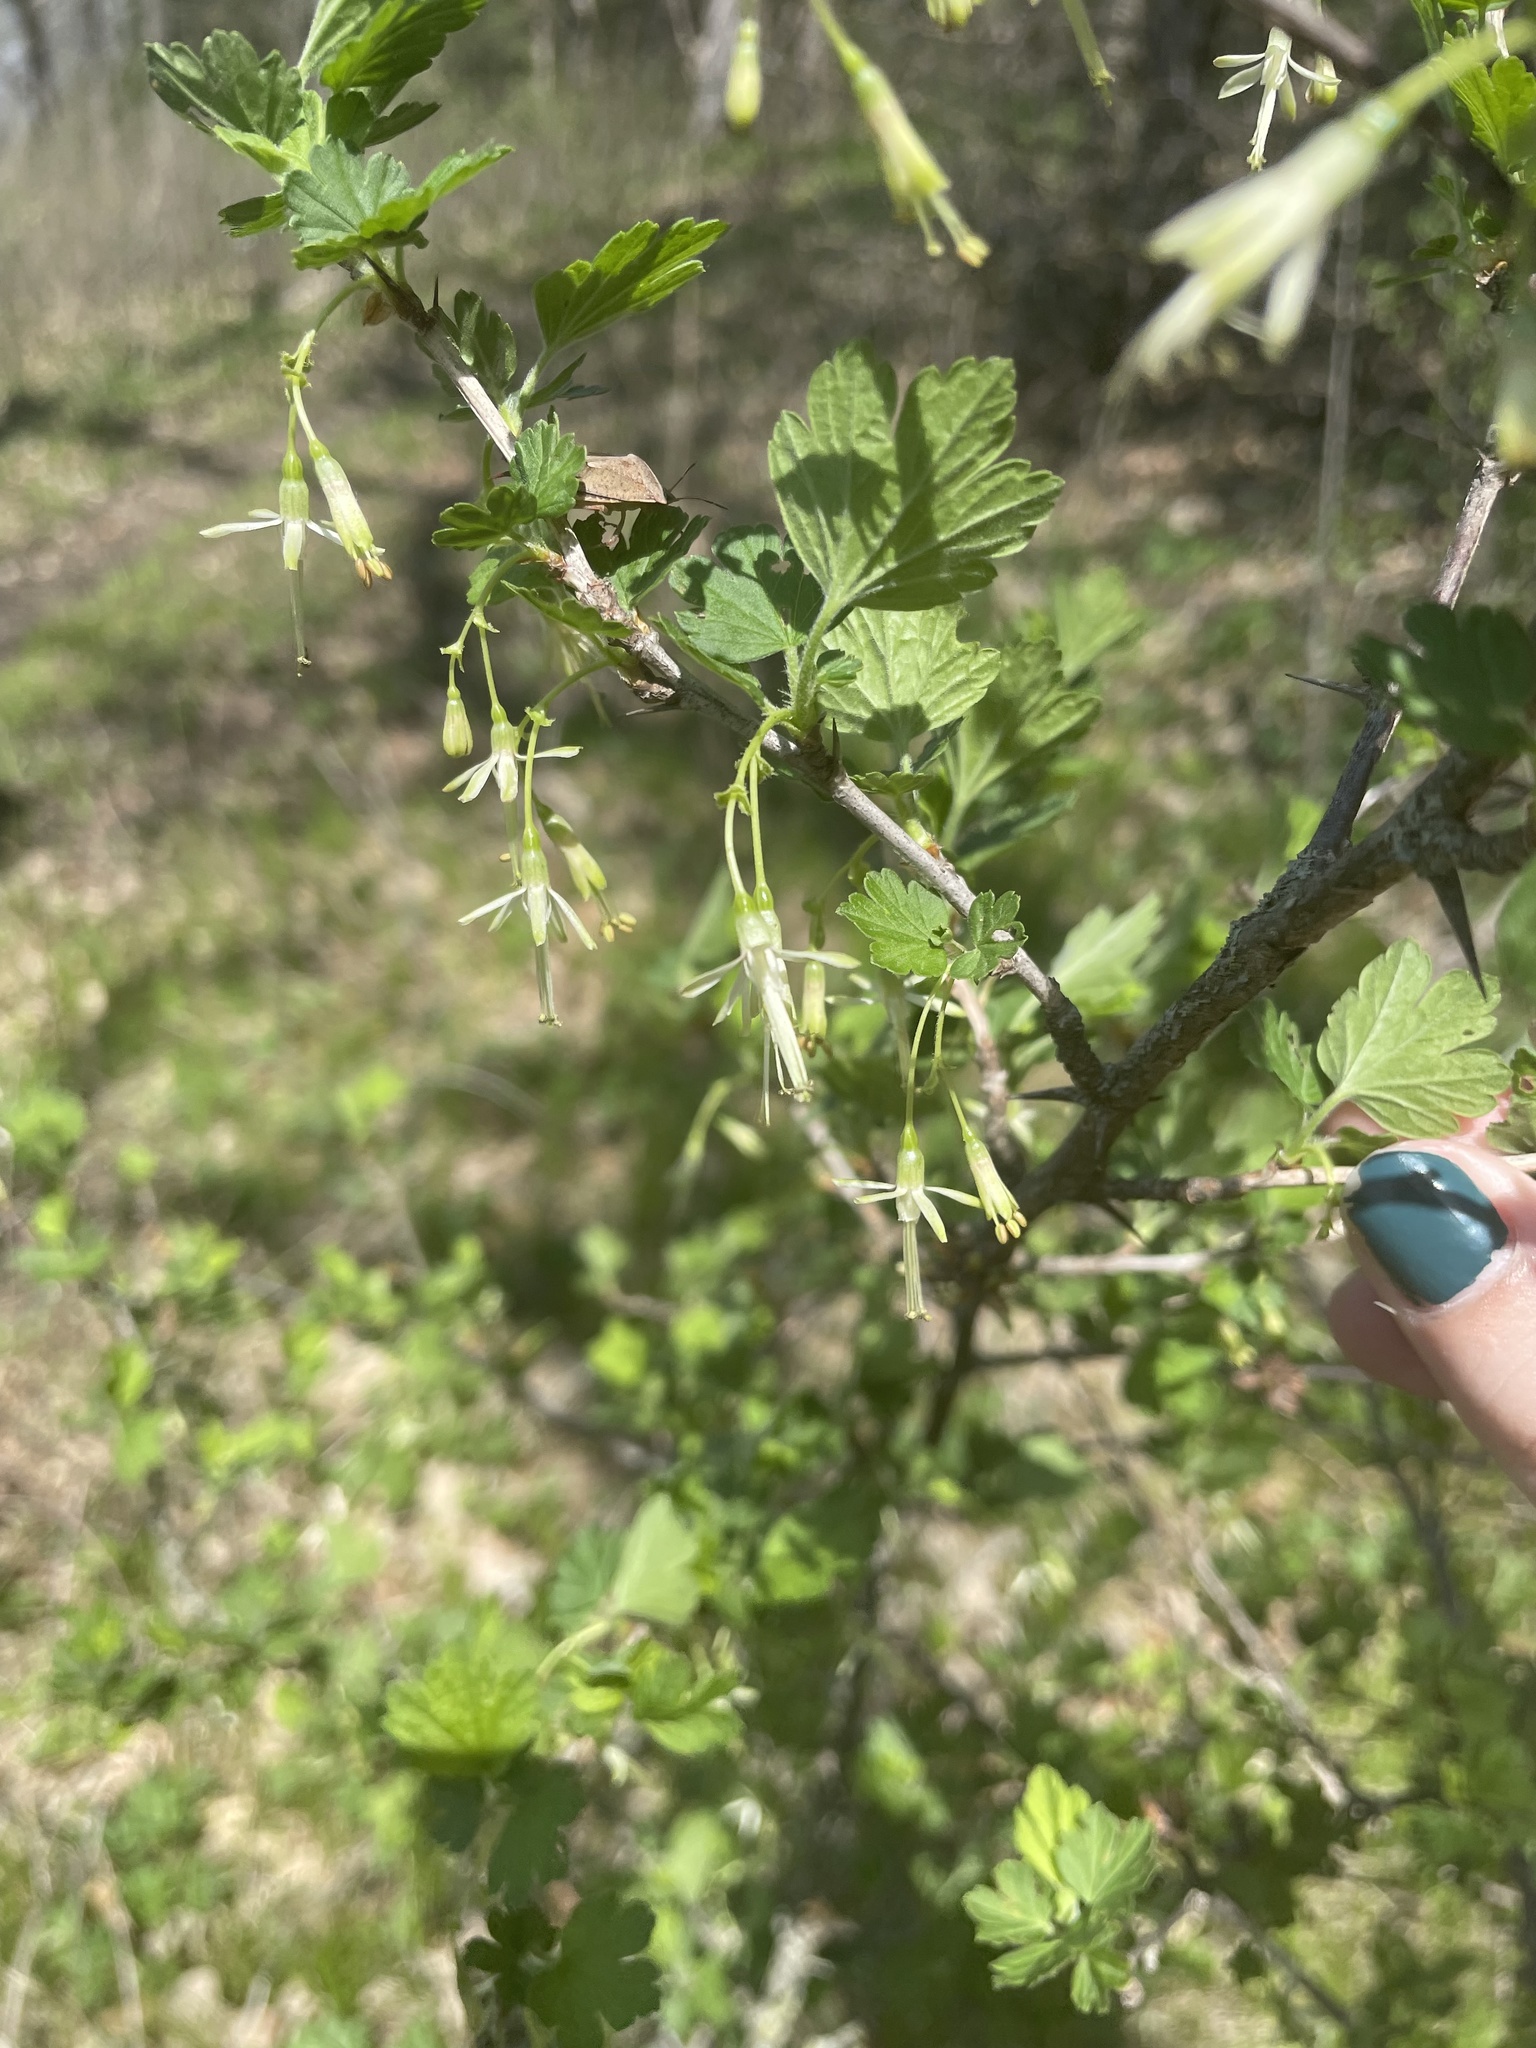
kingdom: Plantae
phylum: Tracheophyta
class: Magnoliopsida
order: Saxifragales
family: Grossulariaceae
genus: Ribes
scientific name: Ribes missouriense
